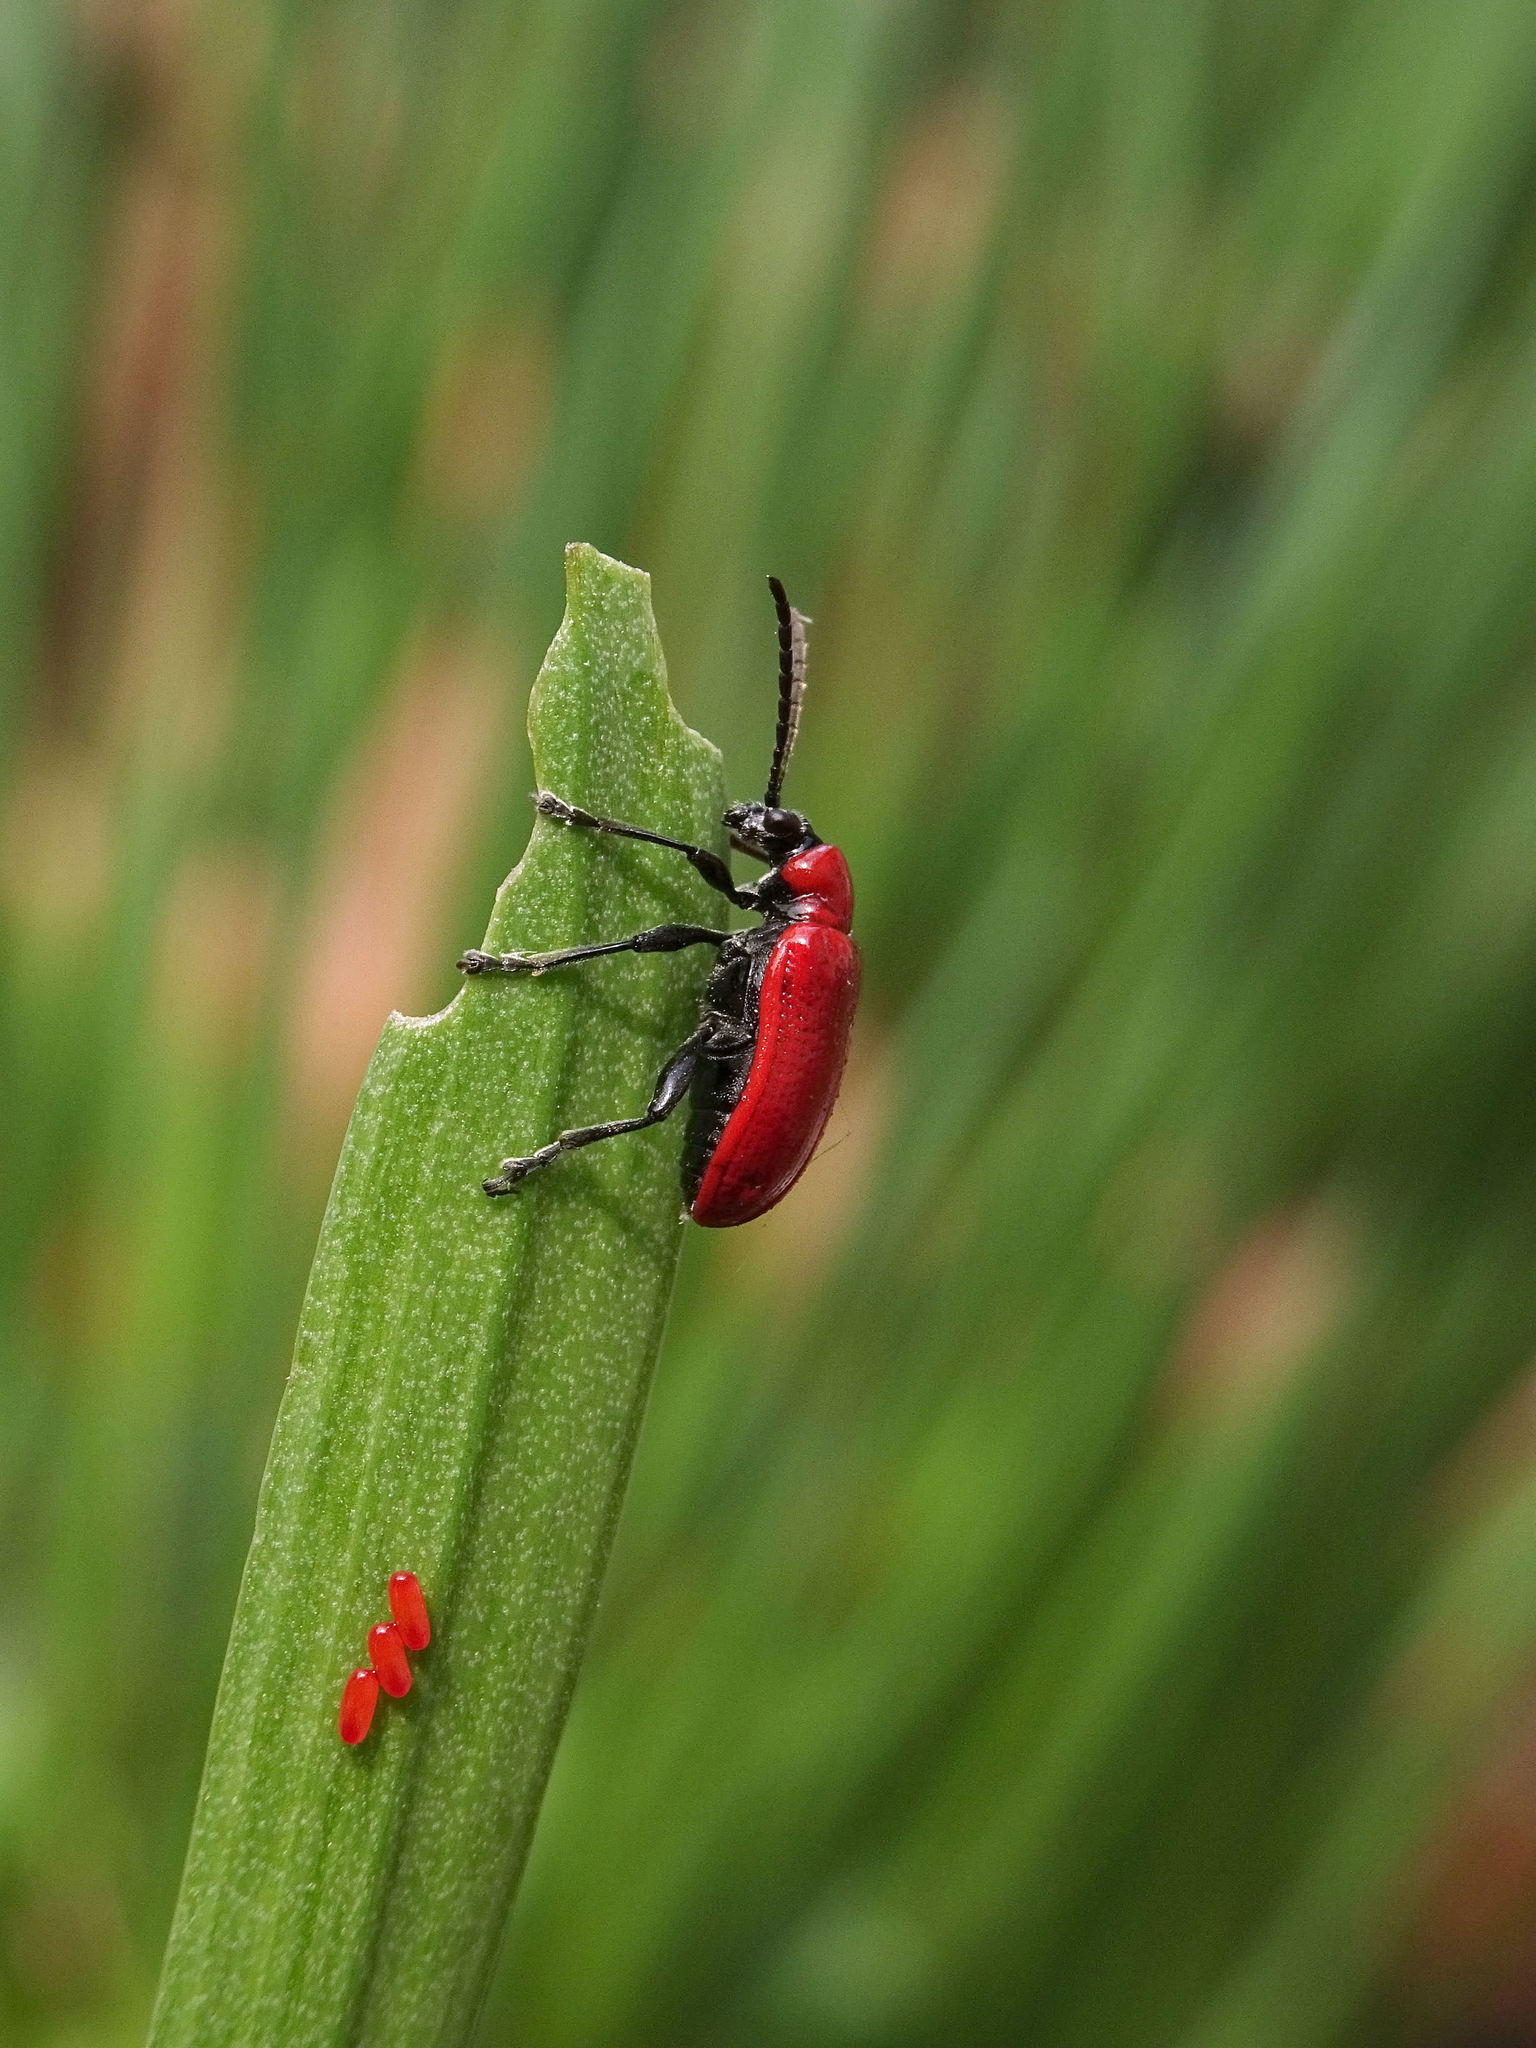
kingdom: Animalia
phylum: Arthropoda
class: Insecta
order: Coleoptera
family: Chrysomelidae
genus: Lilioceris
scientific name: Lilioceris lilii
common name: Lily beetle
